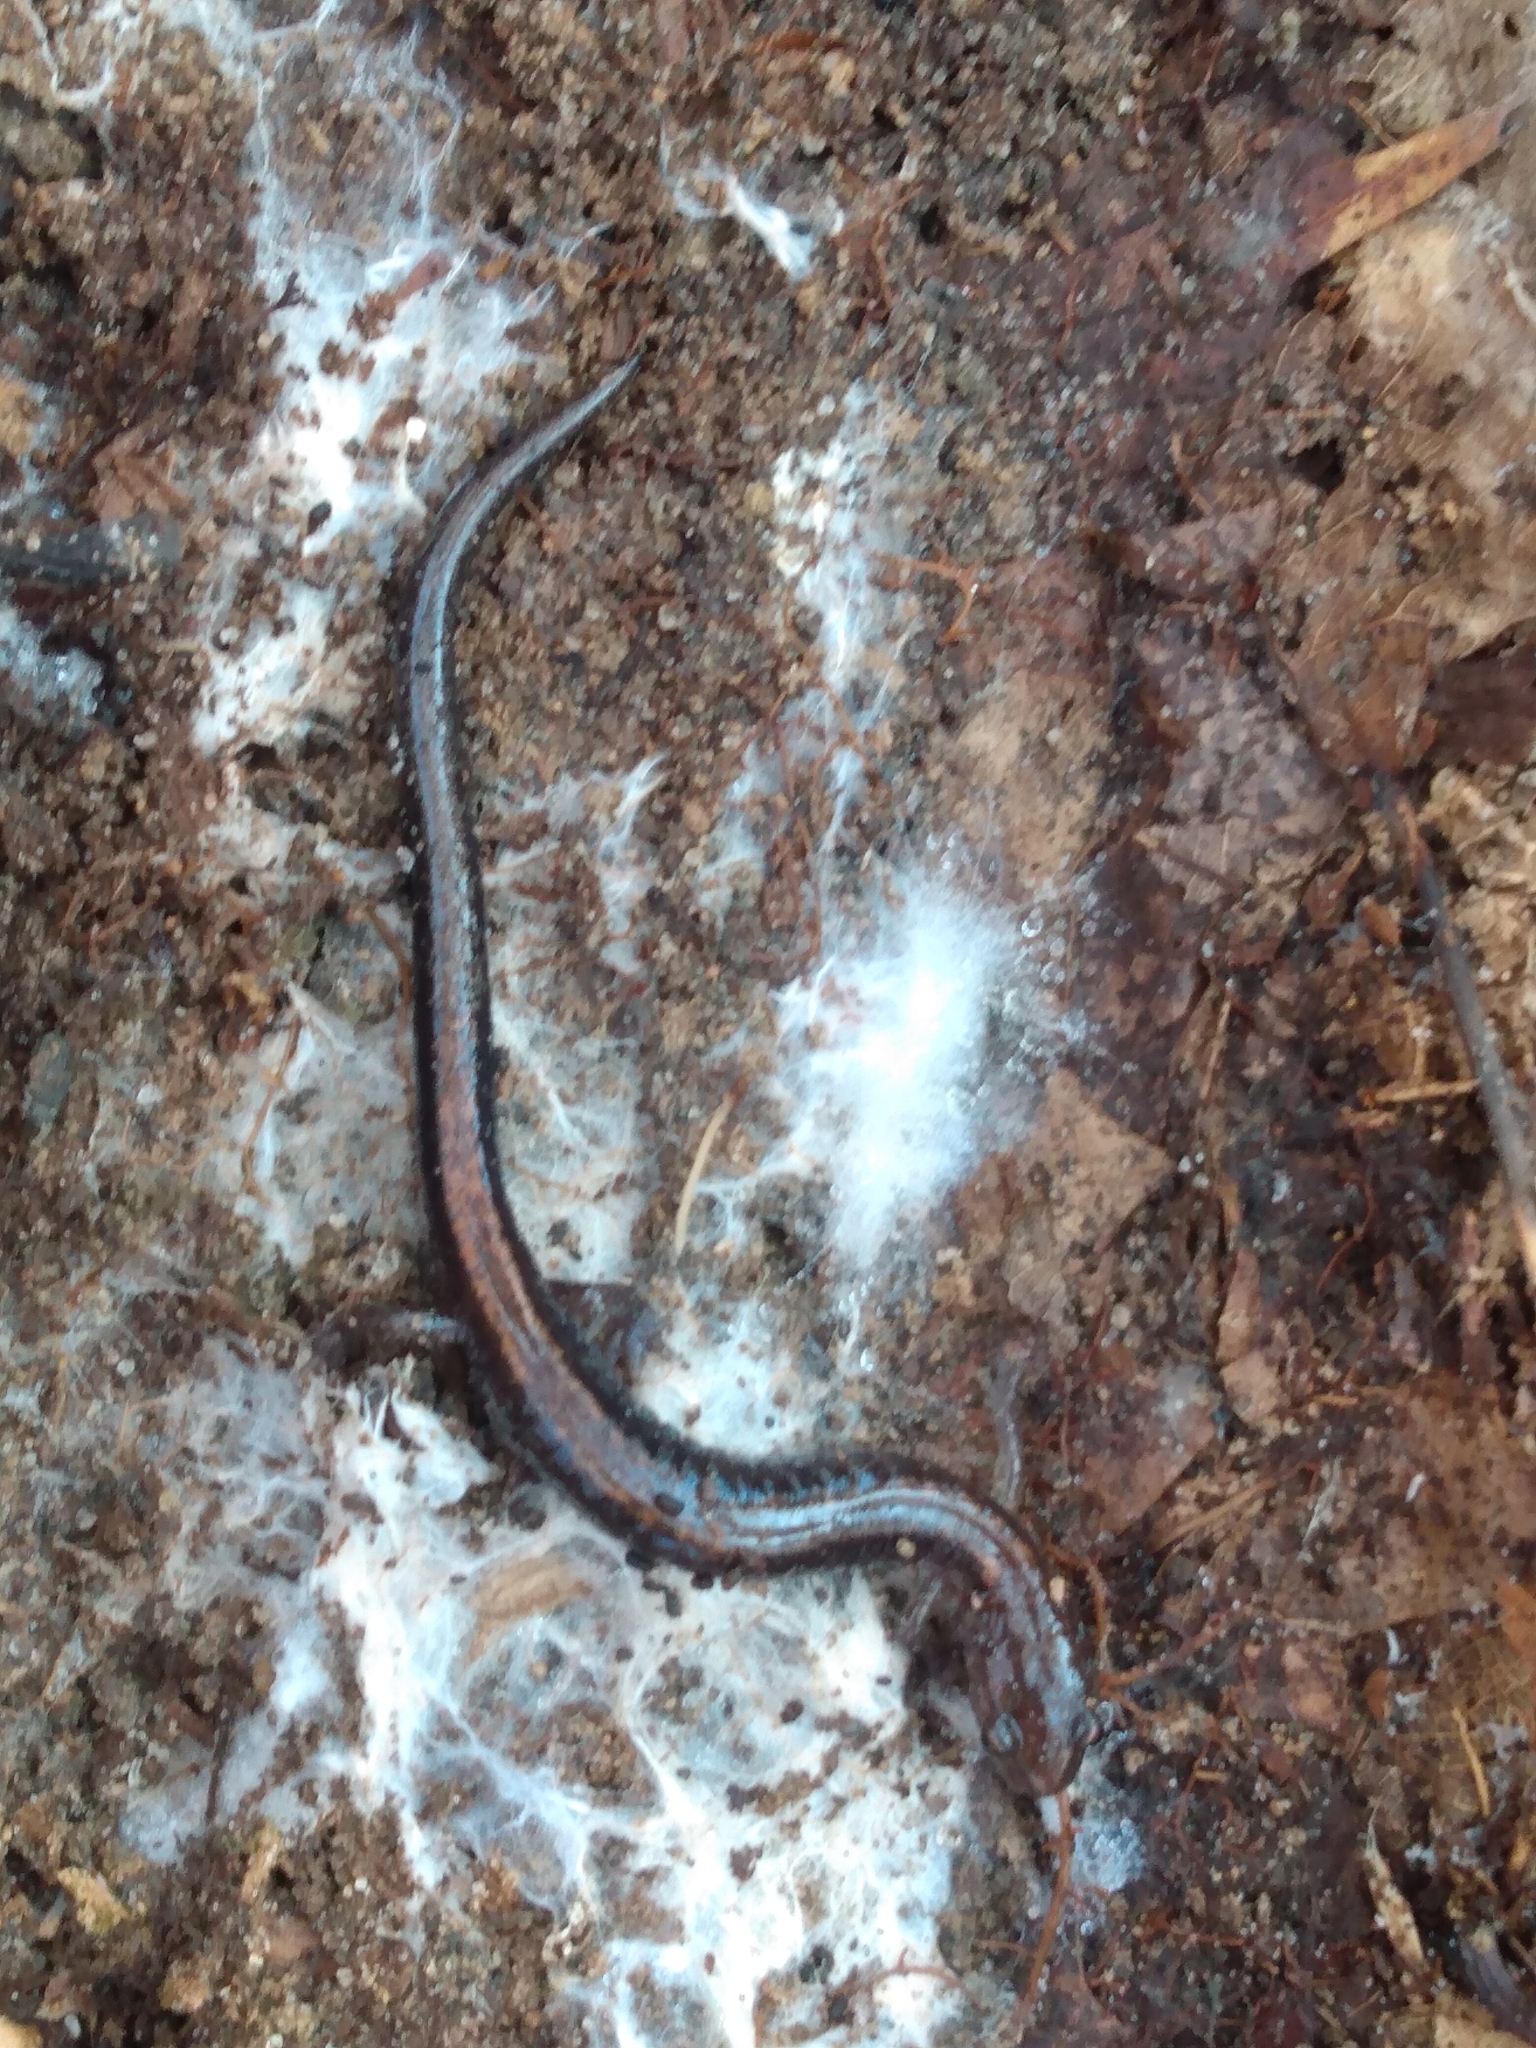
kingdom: Animalia
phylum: Chordata
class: Amphibia
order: Caudata
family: Plethodontidae
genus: Plethodon
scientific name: Plethodon cinereus
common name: Redback salamander
